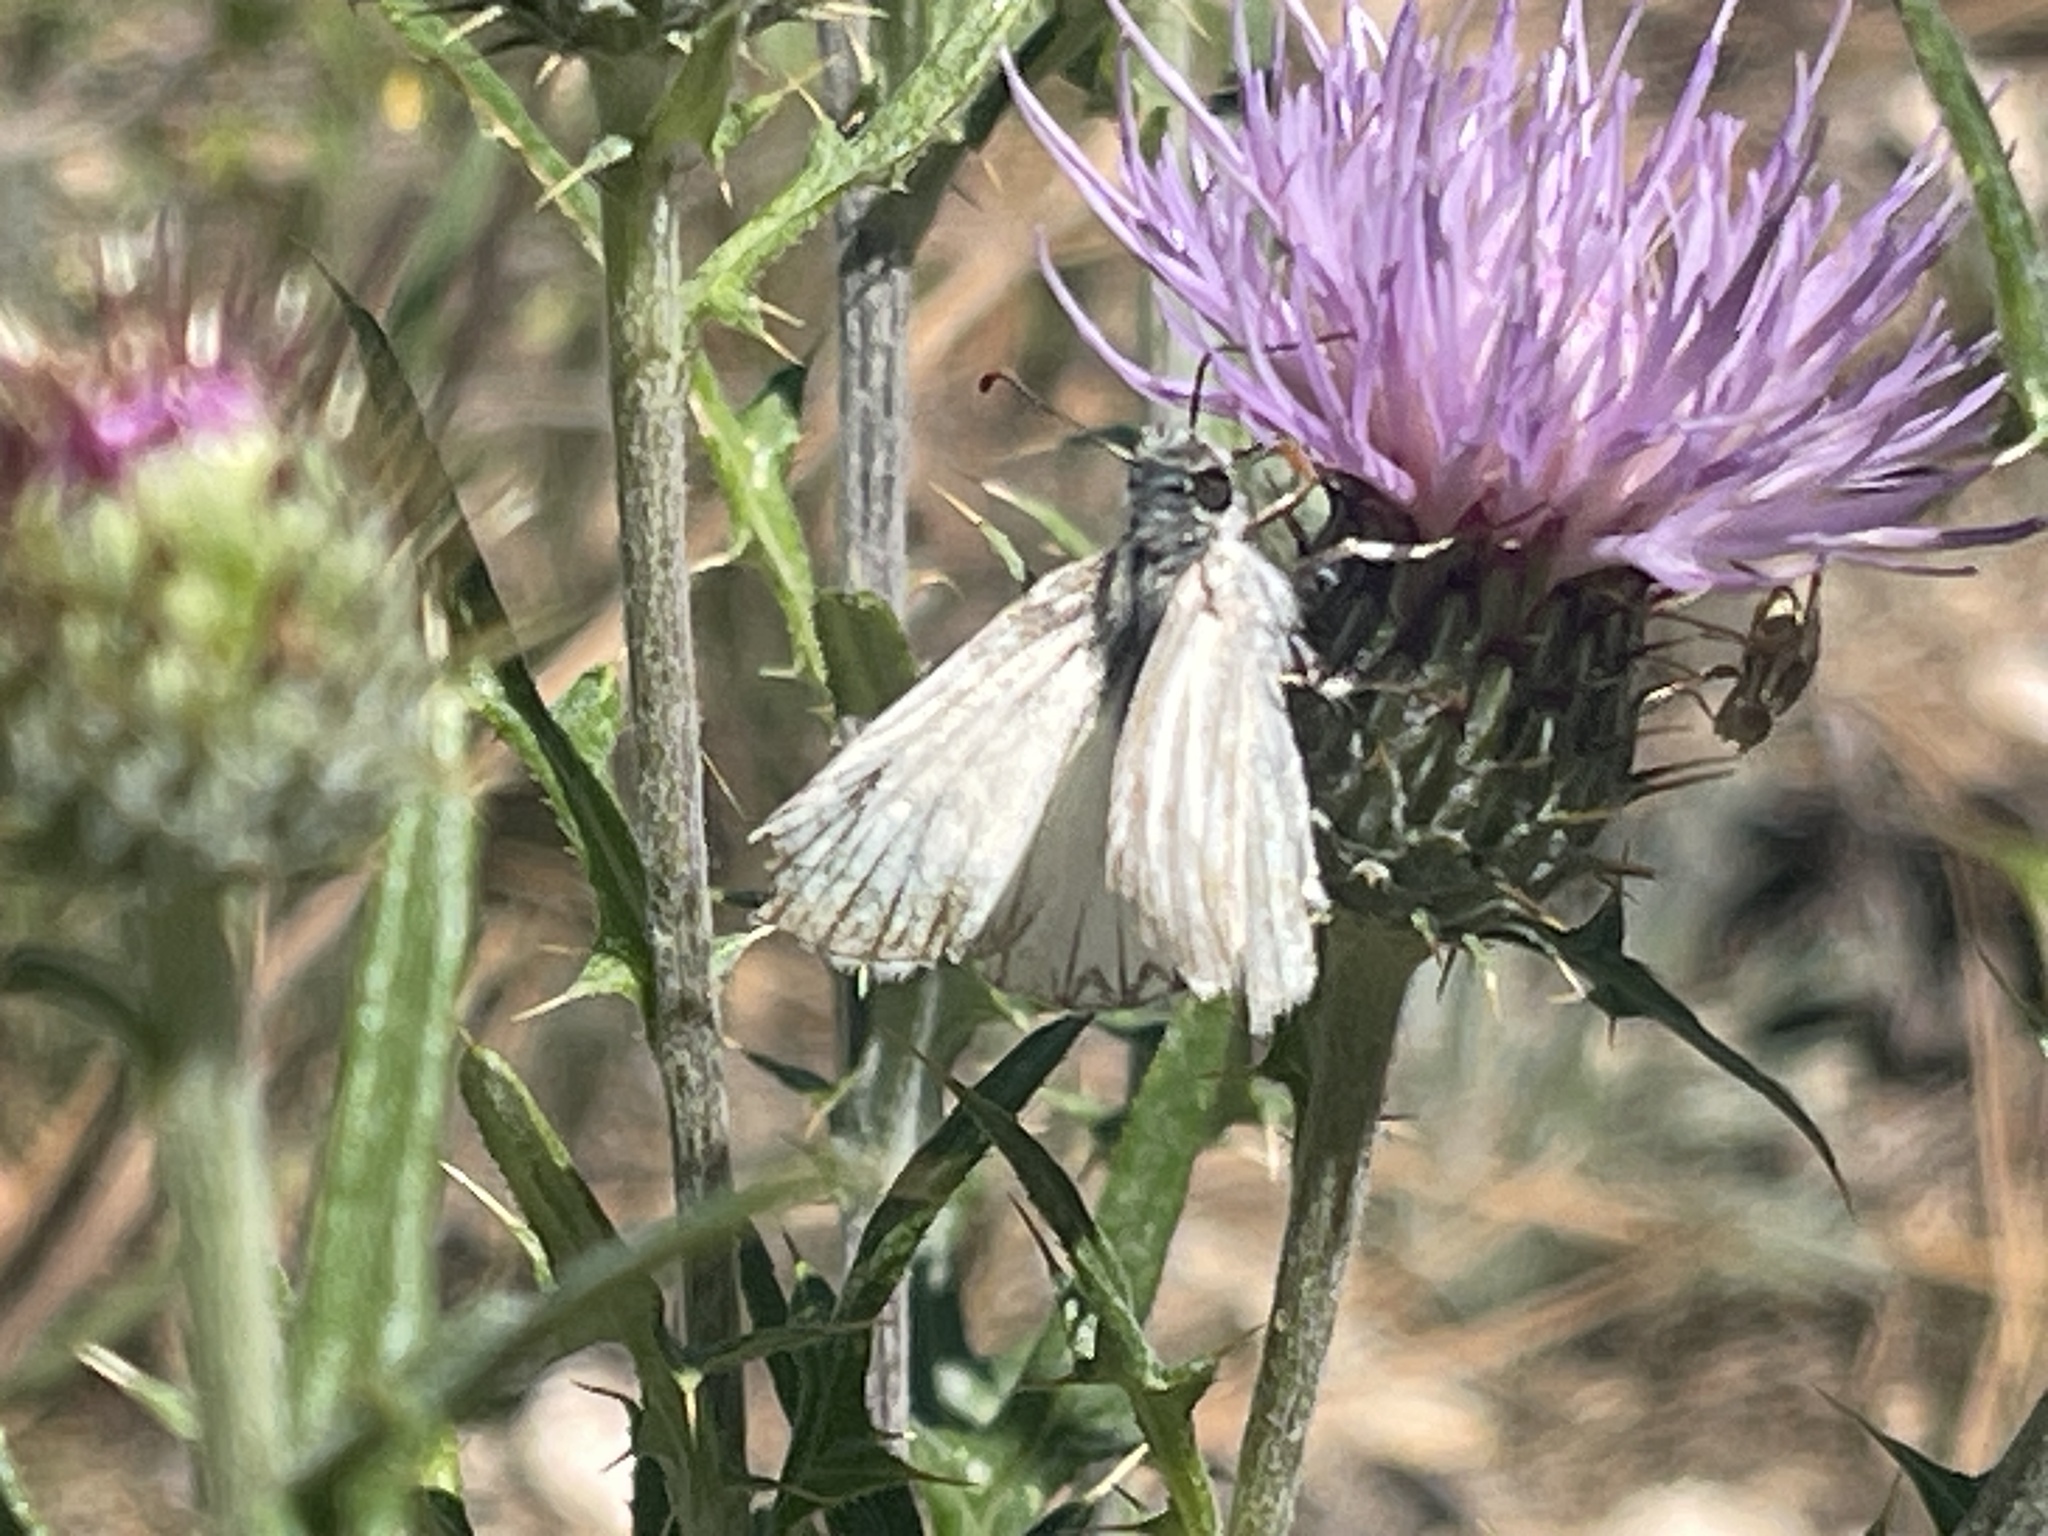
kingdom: Animalia
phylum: Arthropoda
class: Insecta
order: Lepidoptera
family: Hesperiidae
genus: Heliopetes
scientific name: Heliopetes ericetorum
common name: Northern white-skipper
